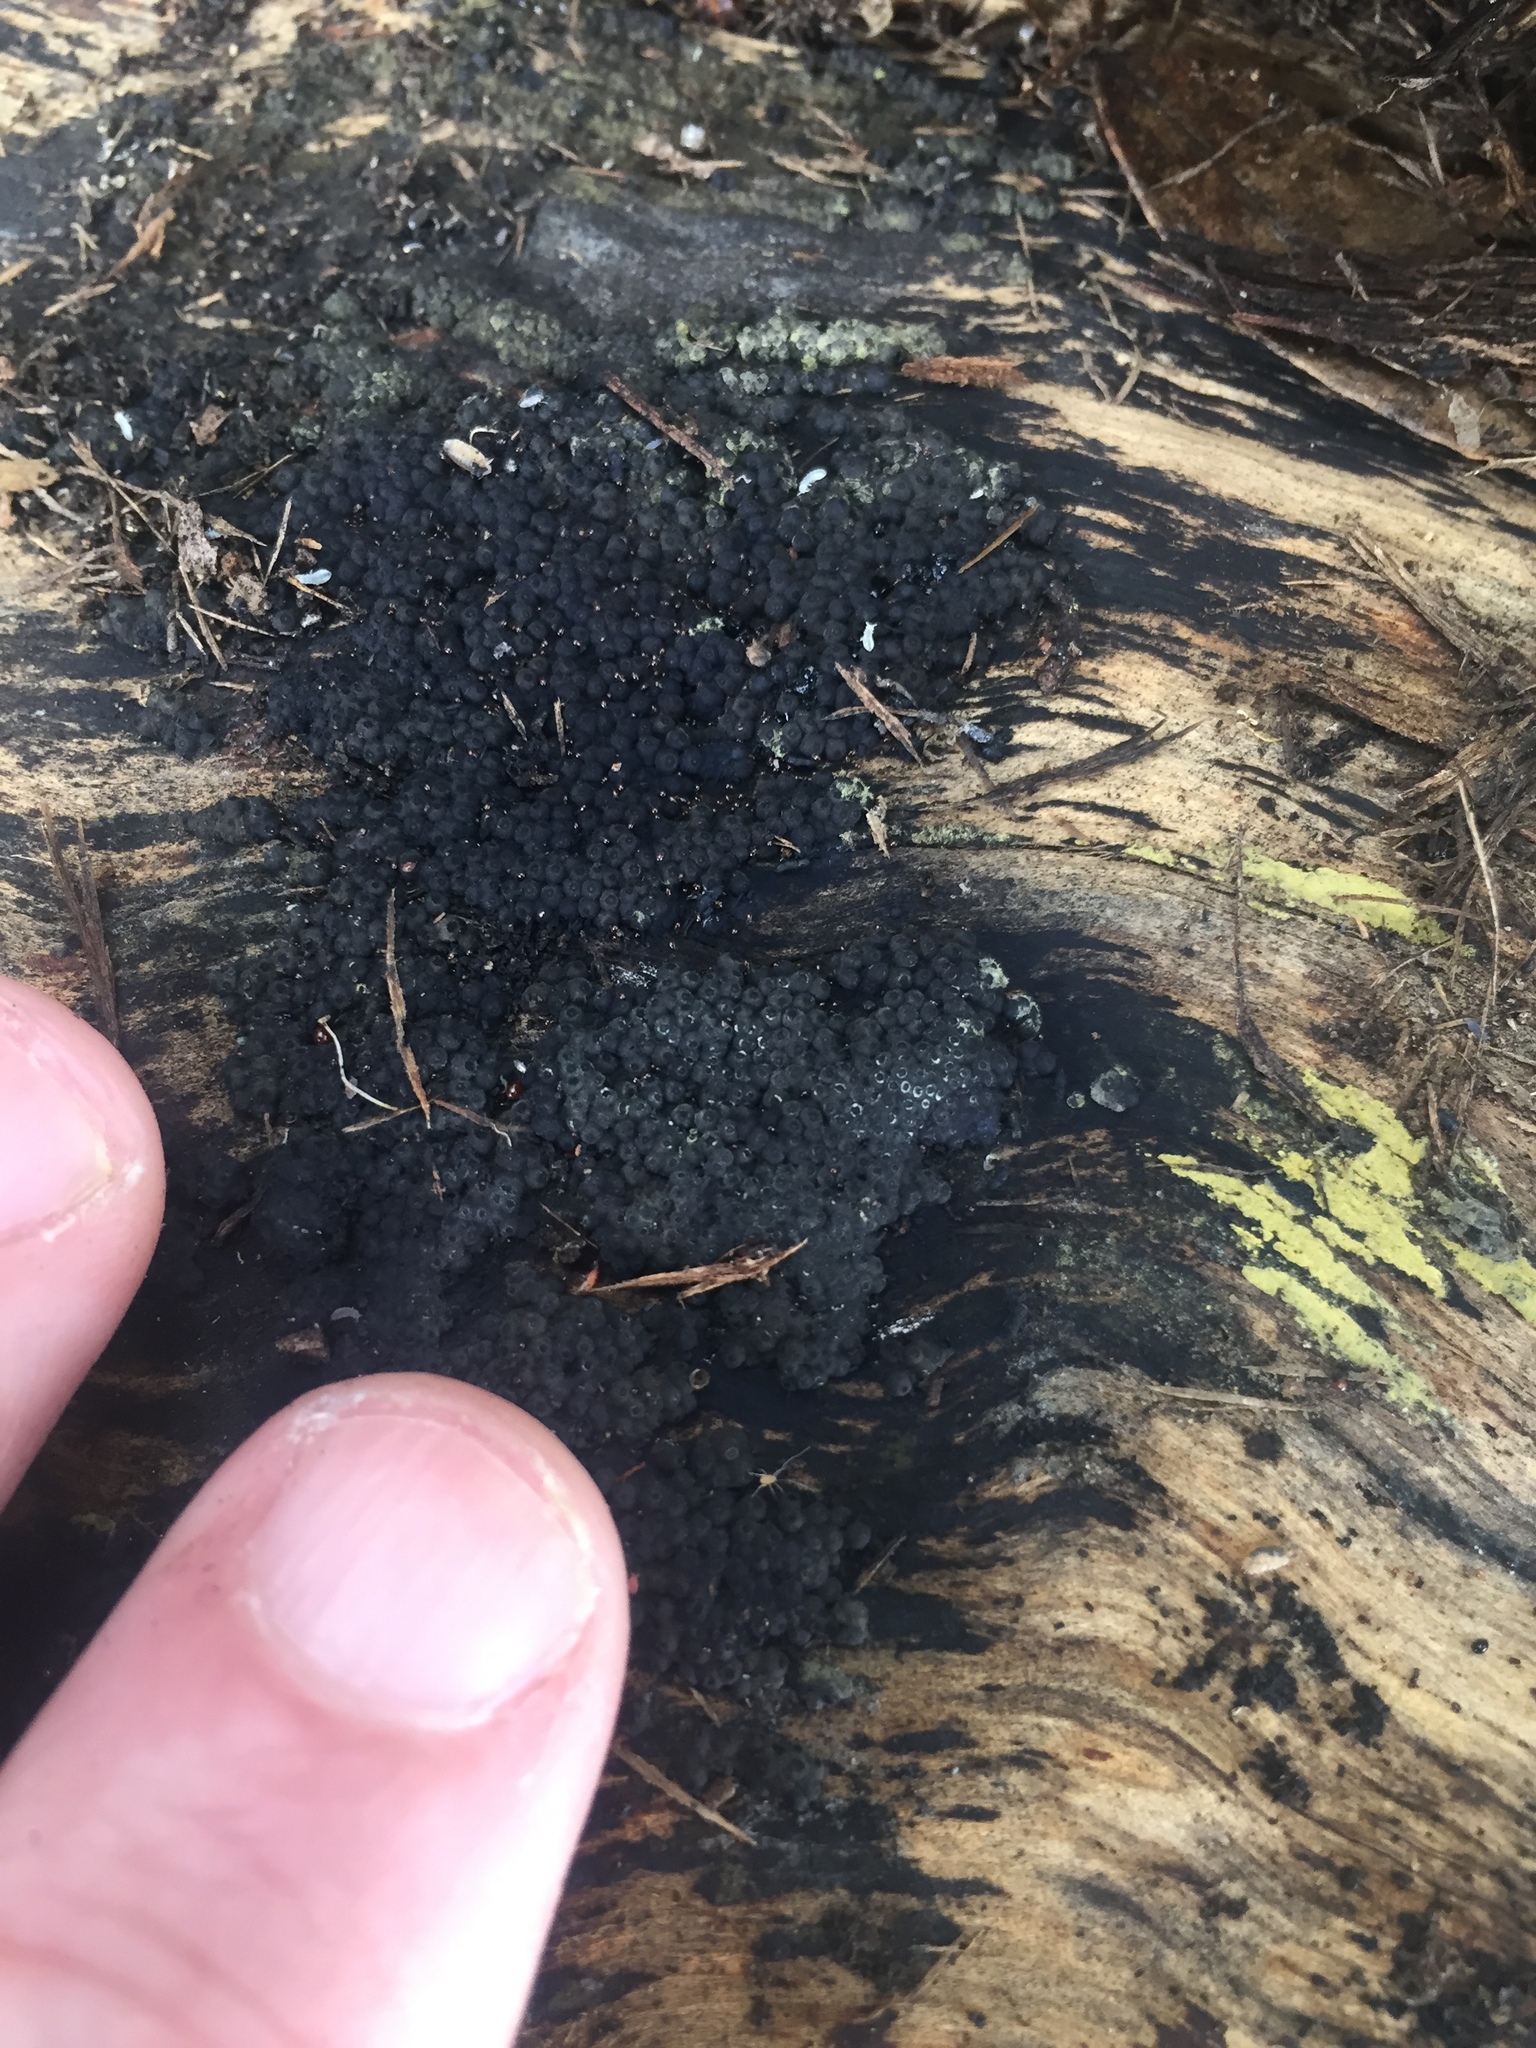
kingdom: Fungi
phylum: Ascomycota
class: Sordariomycetes
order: Xylariales
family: Hypoxylaceae
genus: Annulohypoxylon
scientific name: Annulohypoxylon bovei
